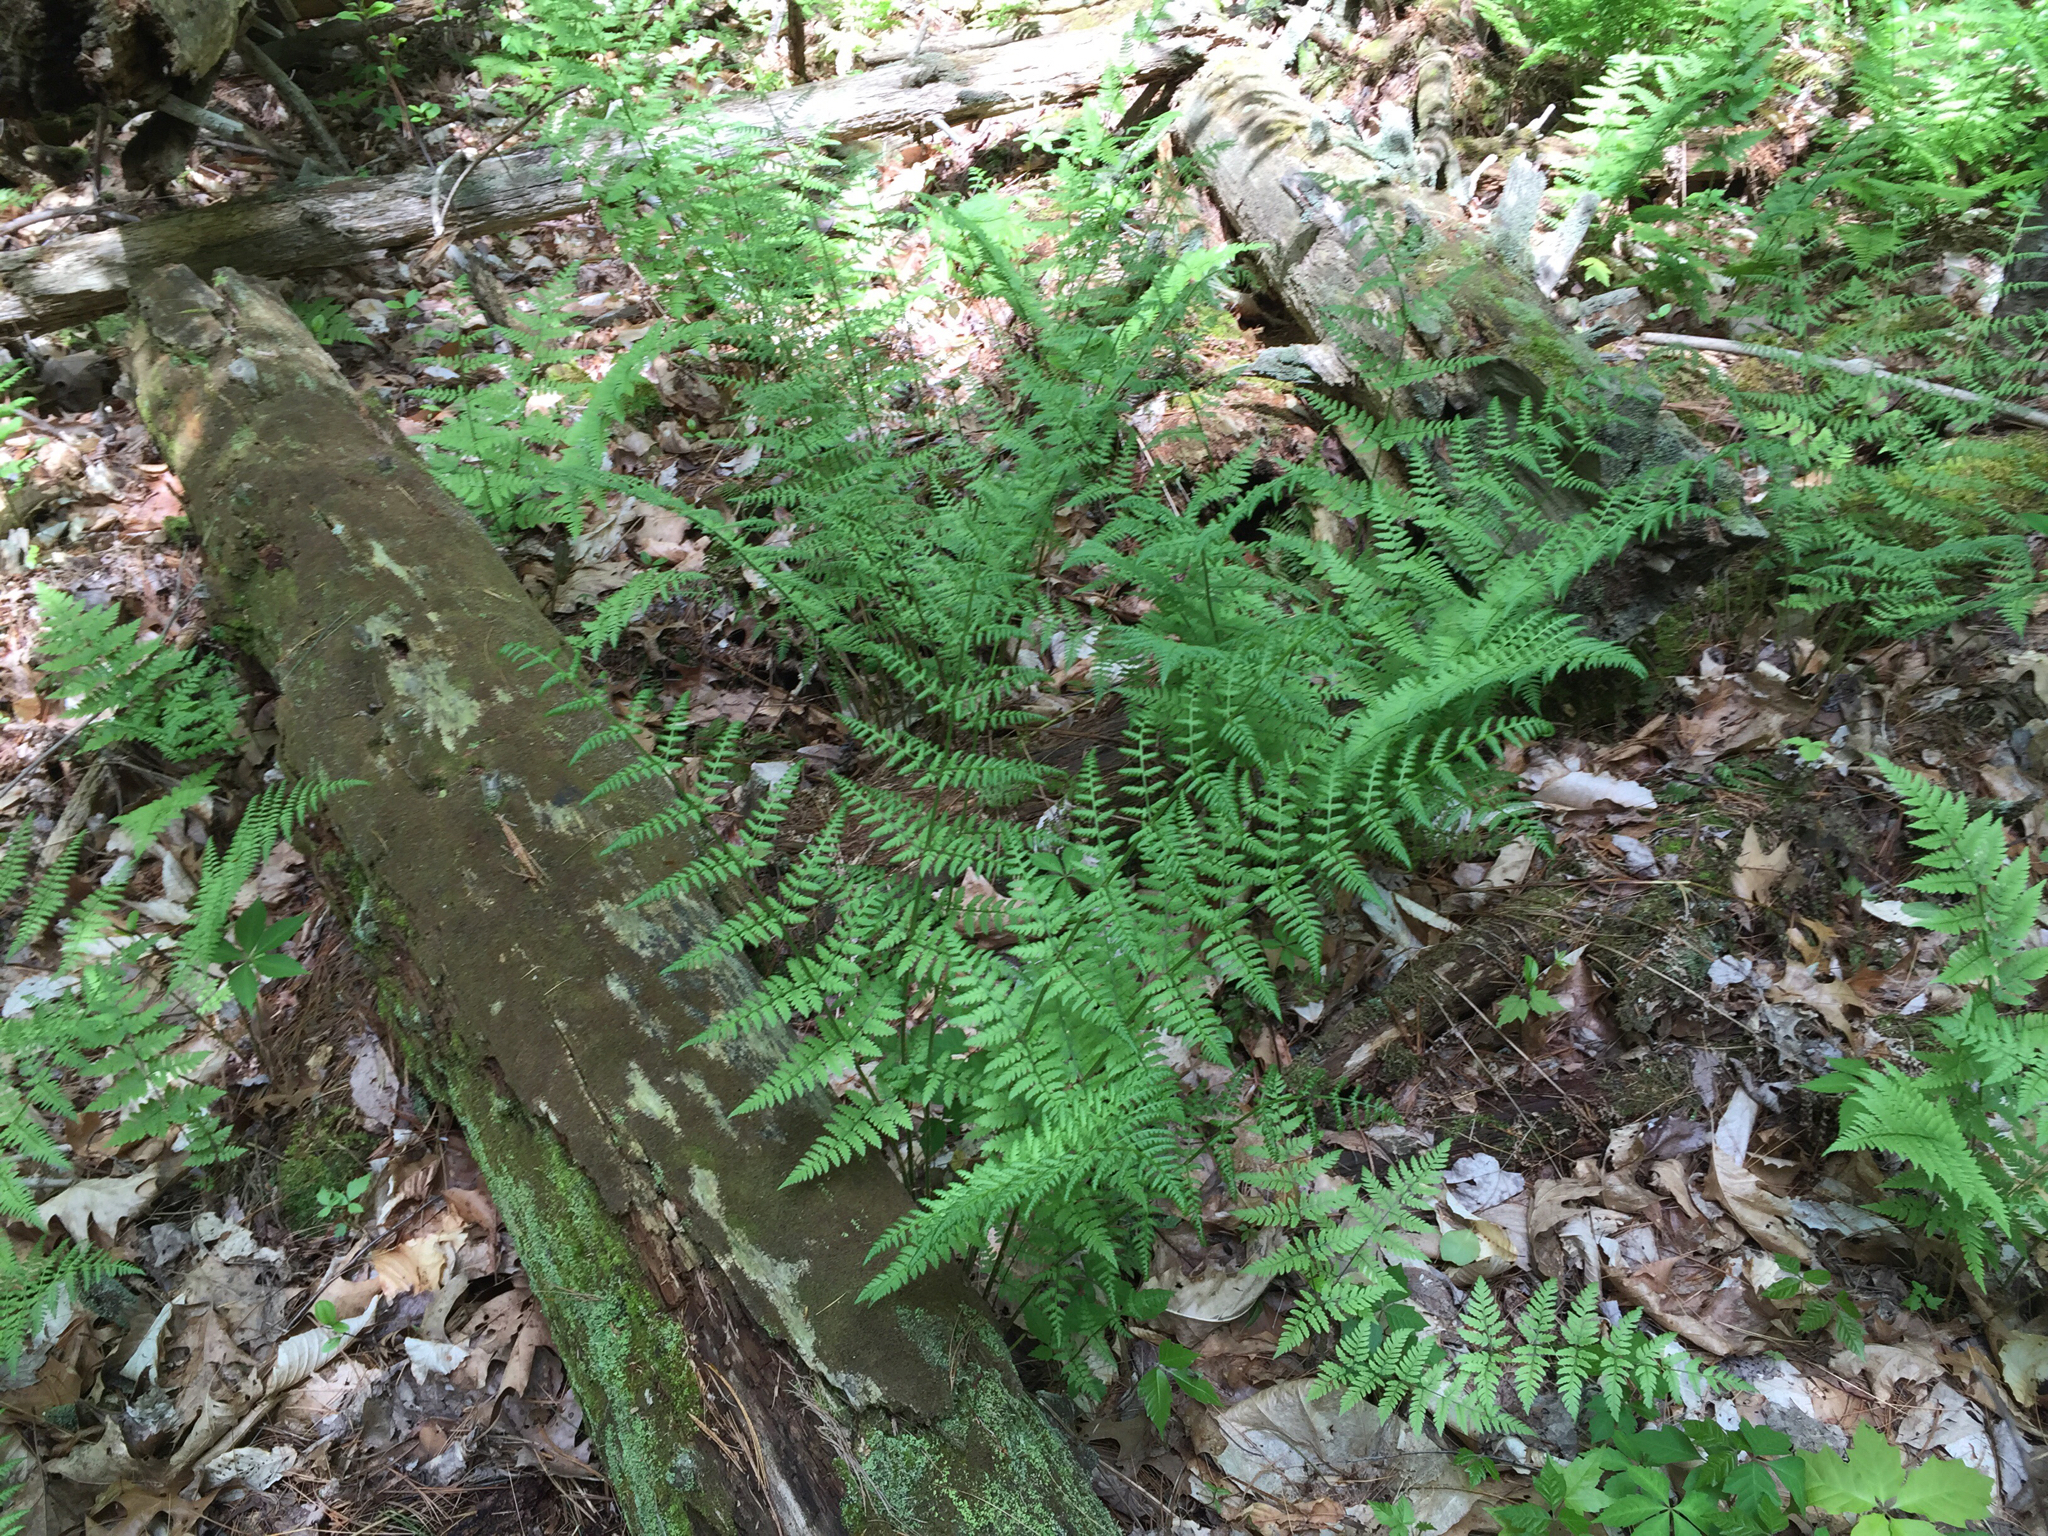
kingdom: Plantae
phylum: Tracheophyta
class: Polypodiopsida
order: Polypodiales
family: Dryopteridaceae
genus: Dryopteris
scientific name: Dryopteris carthusiana
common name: Narrow buckler-fern
